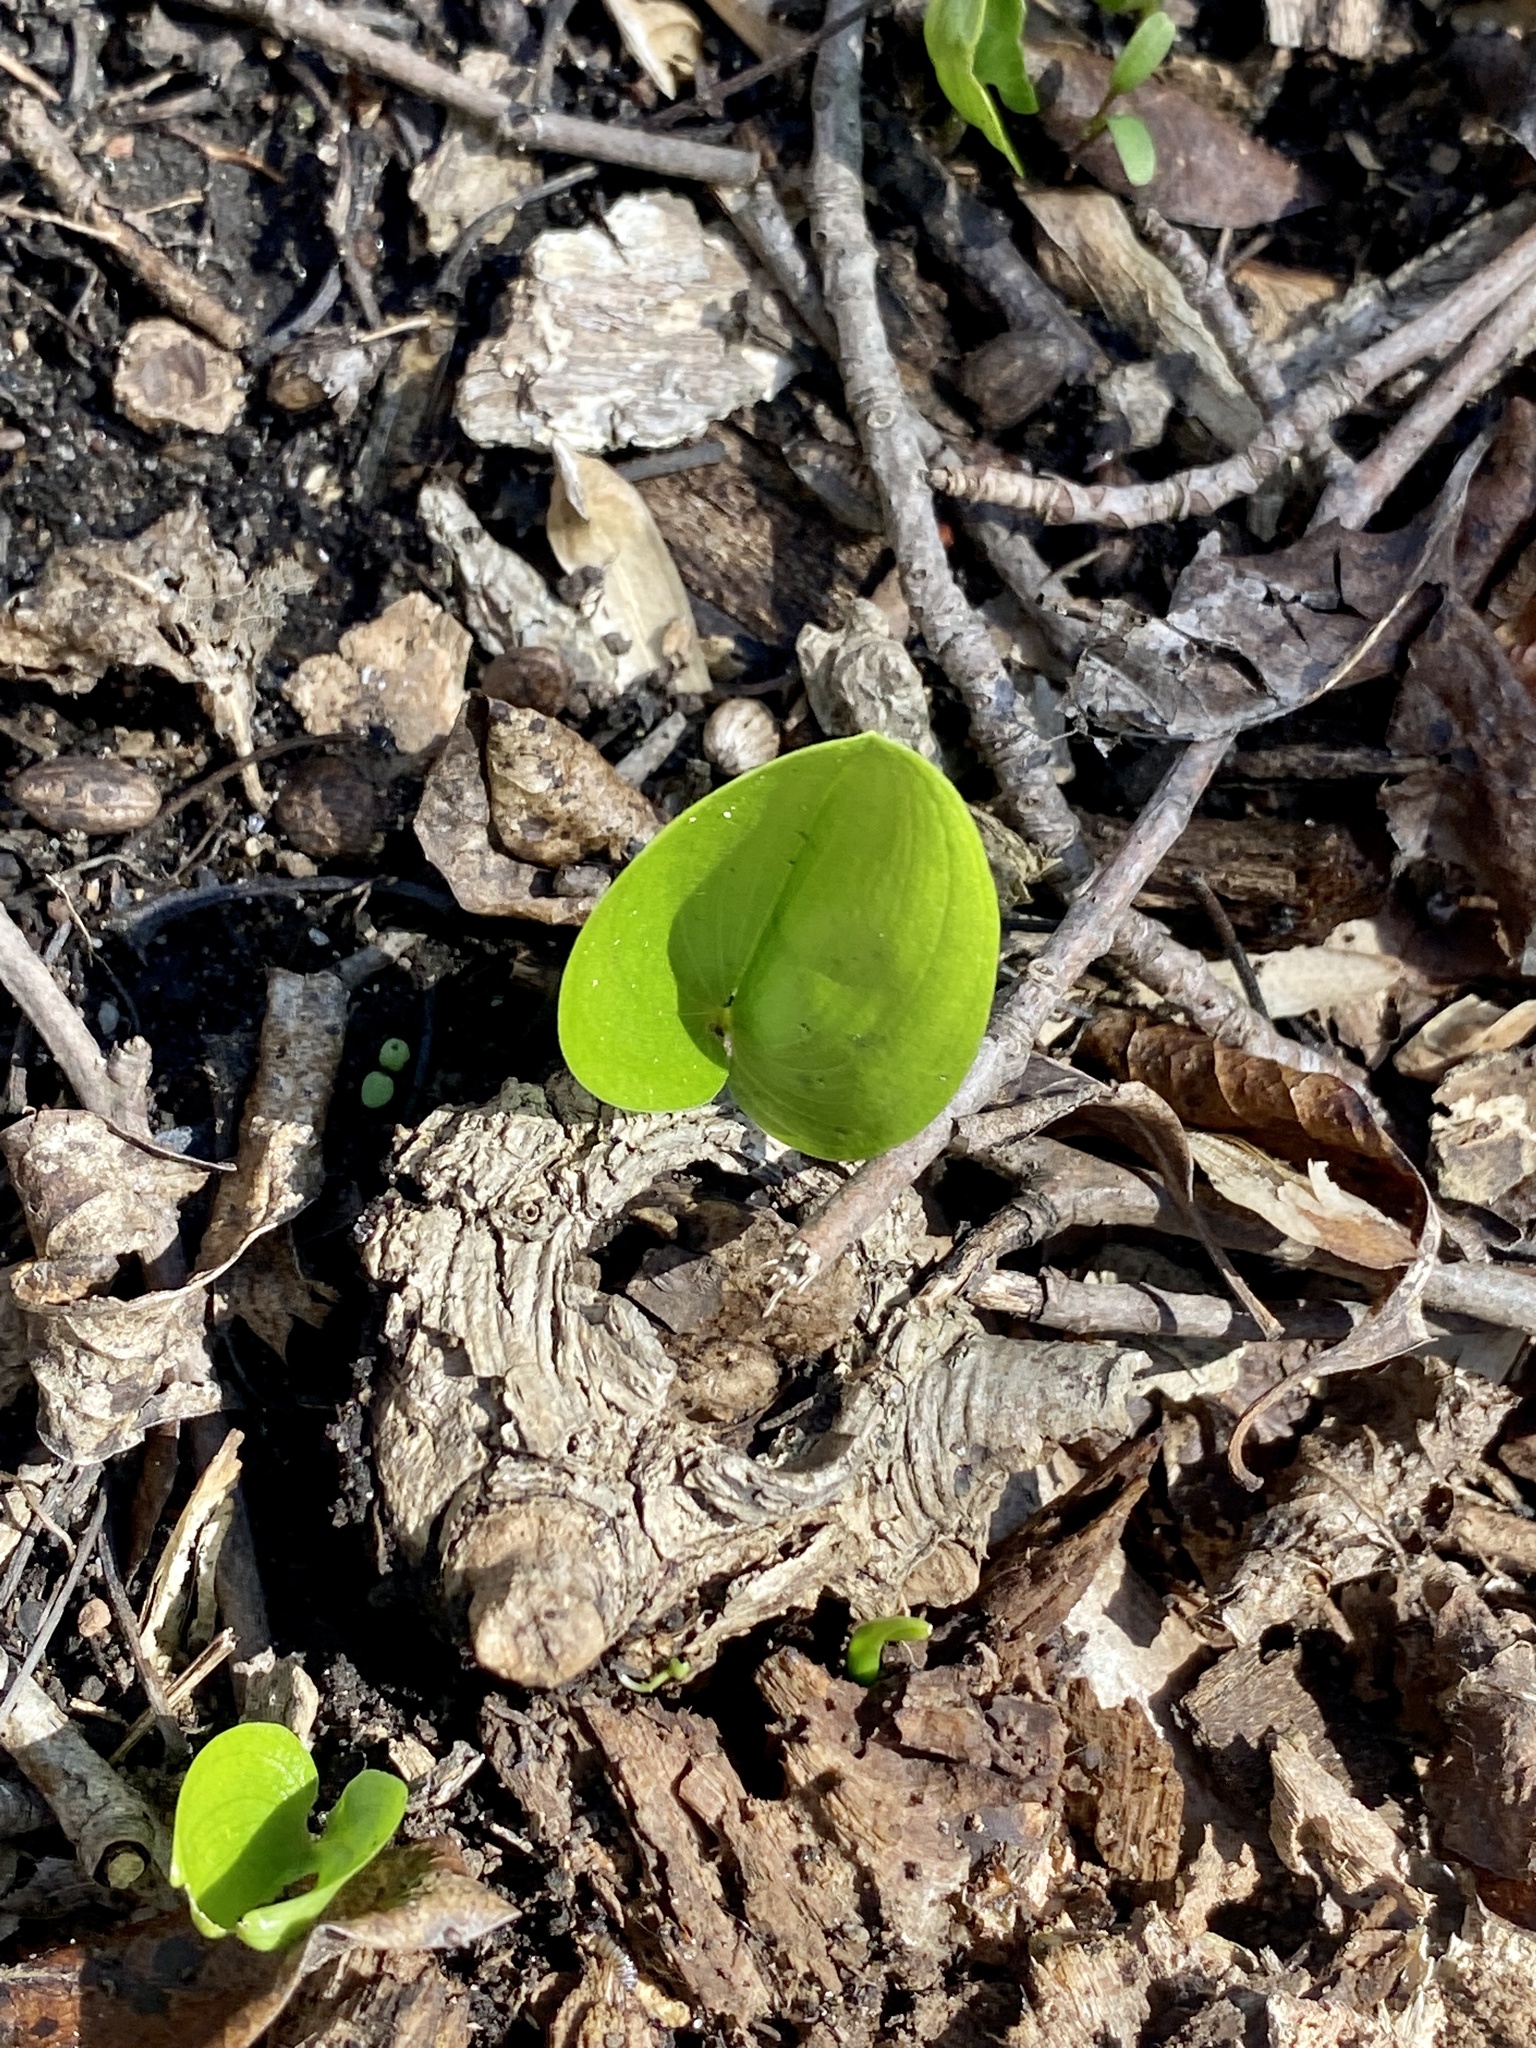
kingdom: Plantae
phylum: Tracheophyta
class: Liliopsida
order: Asparagales
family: Asparagaceae
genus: Maianthemum
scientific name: Maianthemum canadense
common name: False lily-of-the-valley
